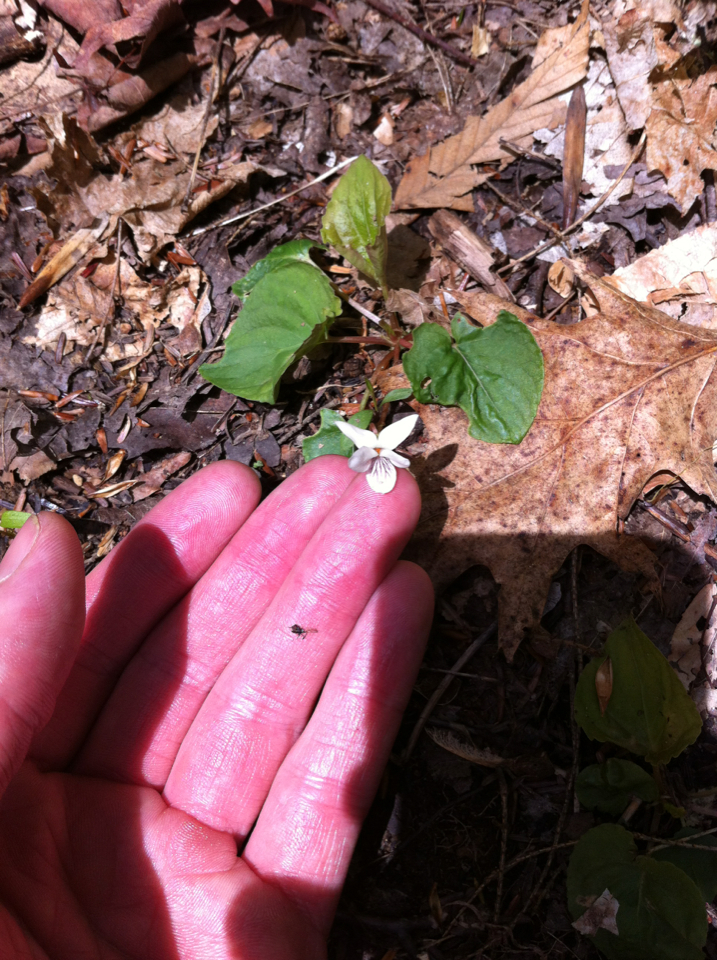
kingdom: Plantae
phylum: Tracheophyta
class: Magnoliopsida
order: Malpighiales
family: Violaceae
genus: Viola
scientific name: Viola blanda
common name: Sweet white violet
